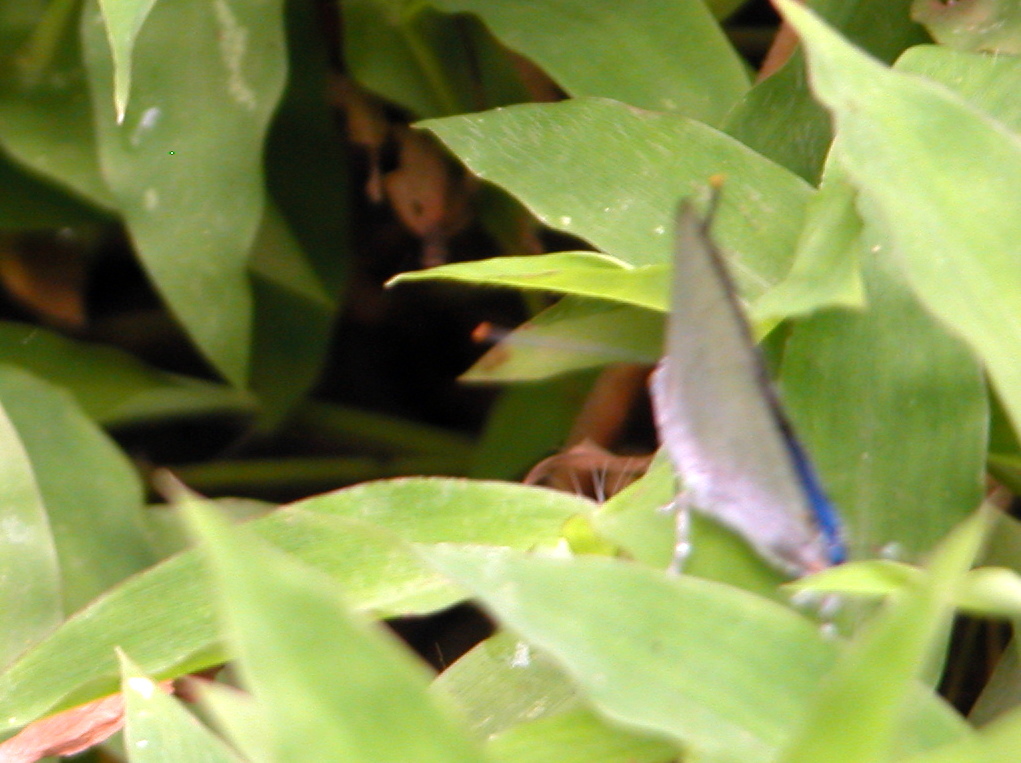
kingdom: Animalia
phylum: Arthropoda
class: Insecta
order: Lepidoptera
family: Lycaenidae
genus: Tajuria
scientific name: Tajuria jehana
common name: Plains blue royal
